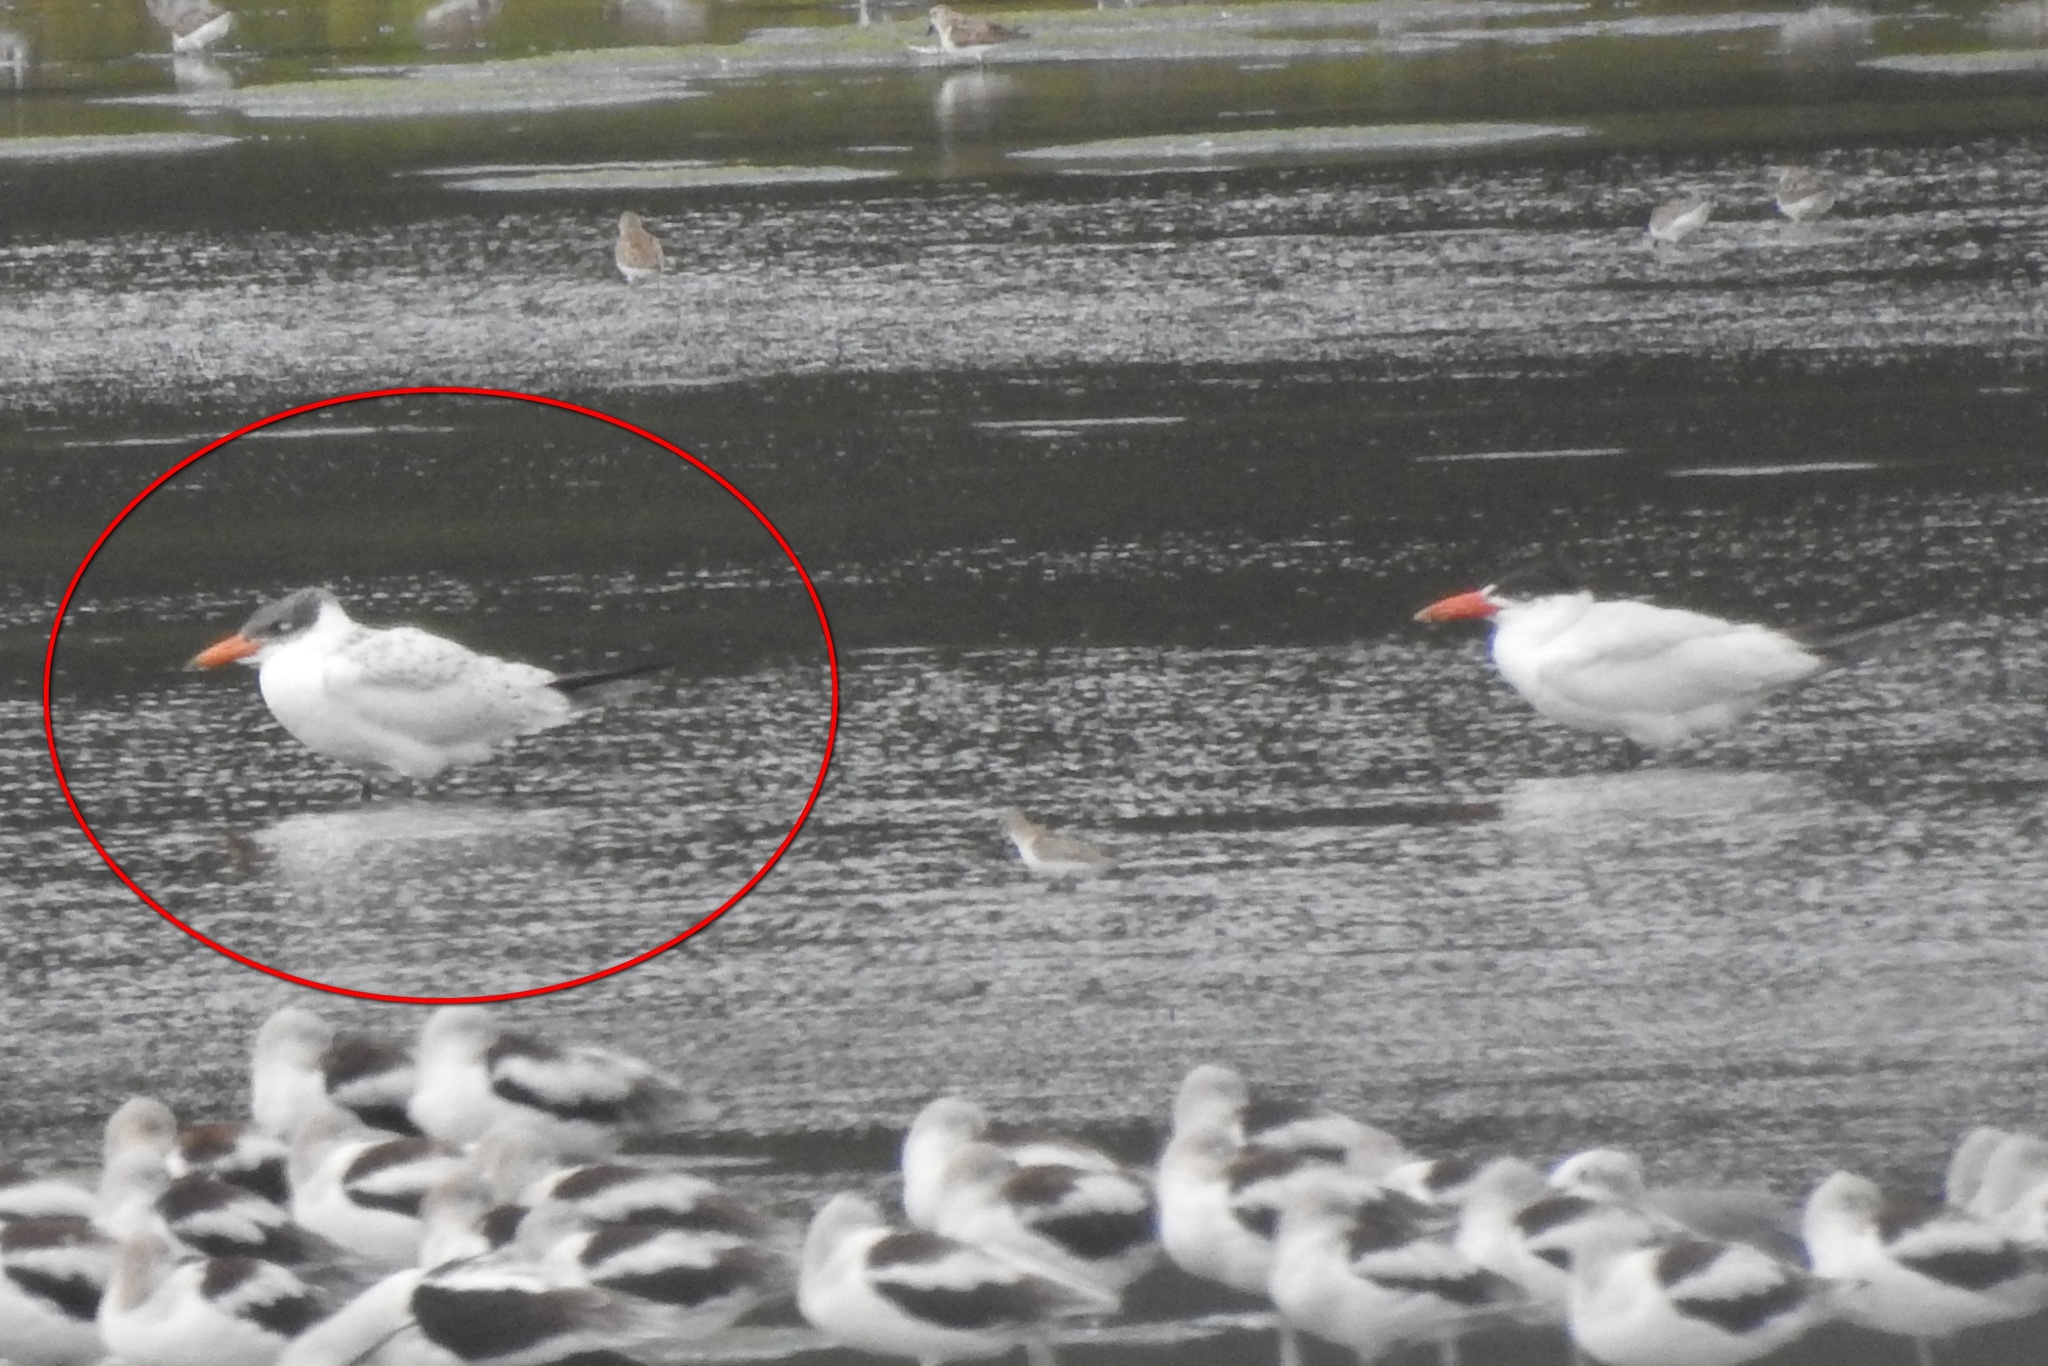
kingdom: Animalia
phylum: Chordata
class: Aves
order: Charadriiformes
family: Laridae
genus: Hydroprogne
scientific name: Hydroprogne caspia
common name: Caspian tern
